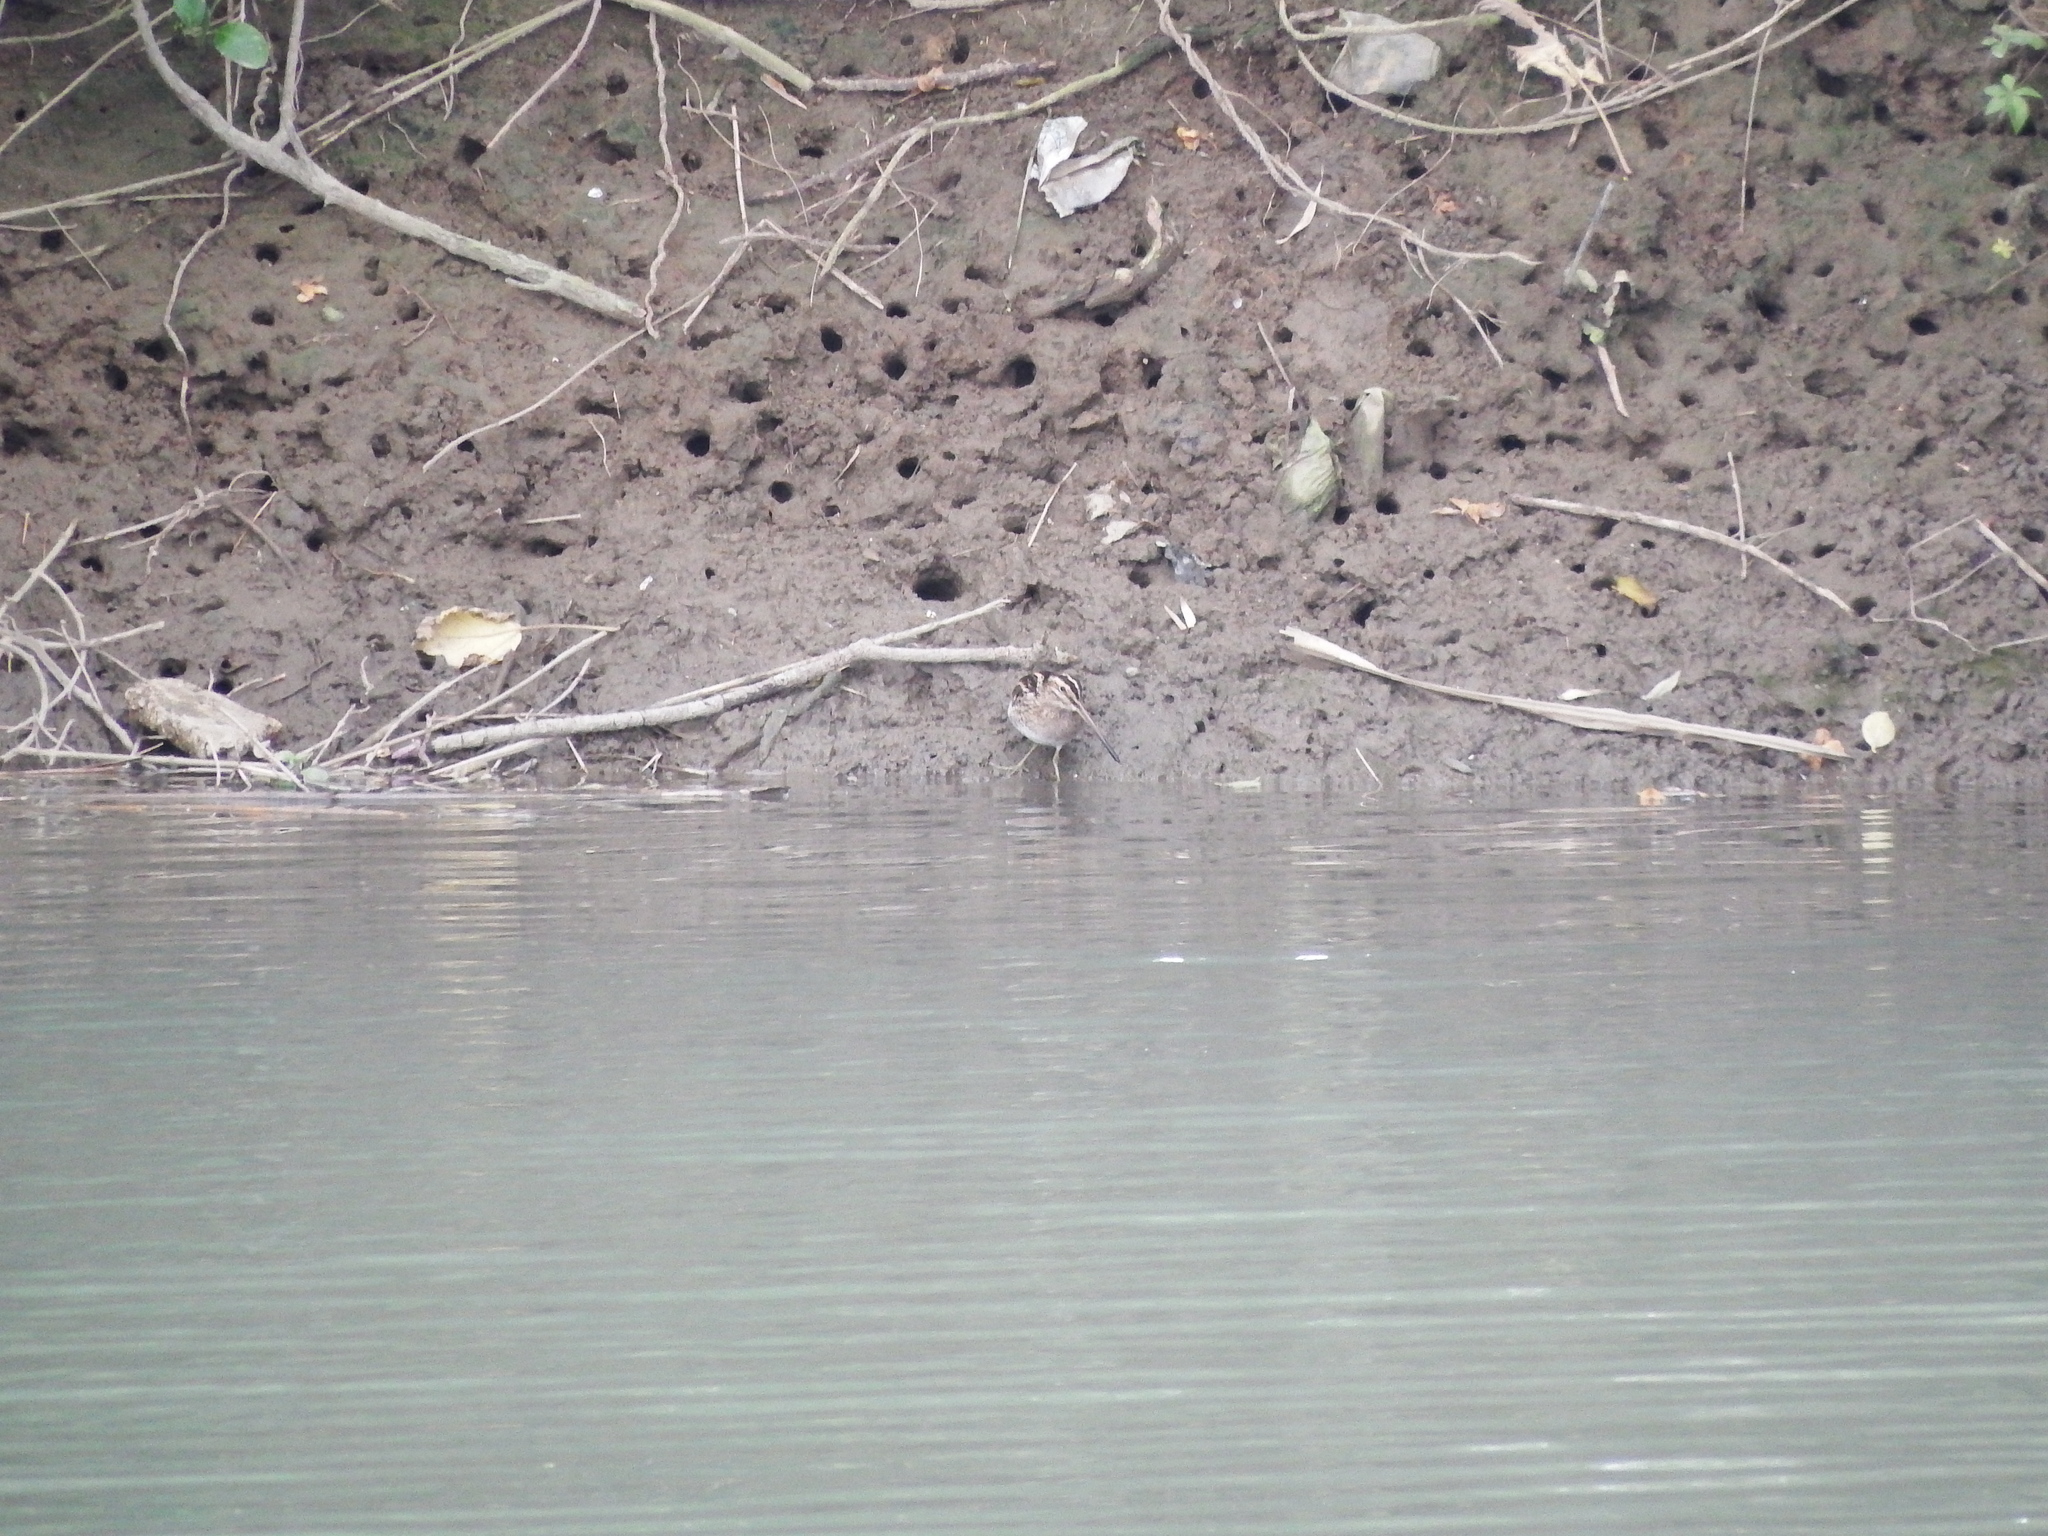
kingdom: Animalia
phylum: Chordata
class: Aves
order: Charadriiformes
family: Scolopacidae
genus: Gallinago
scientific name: Gallinago gallinago
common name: Common snipe
